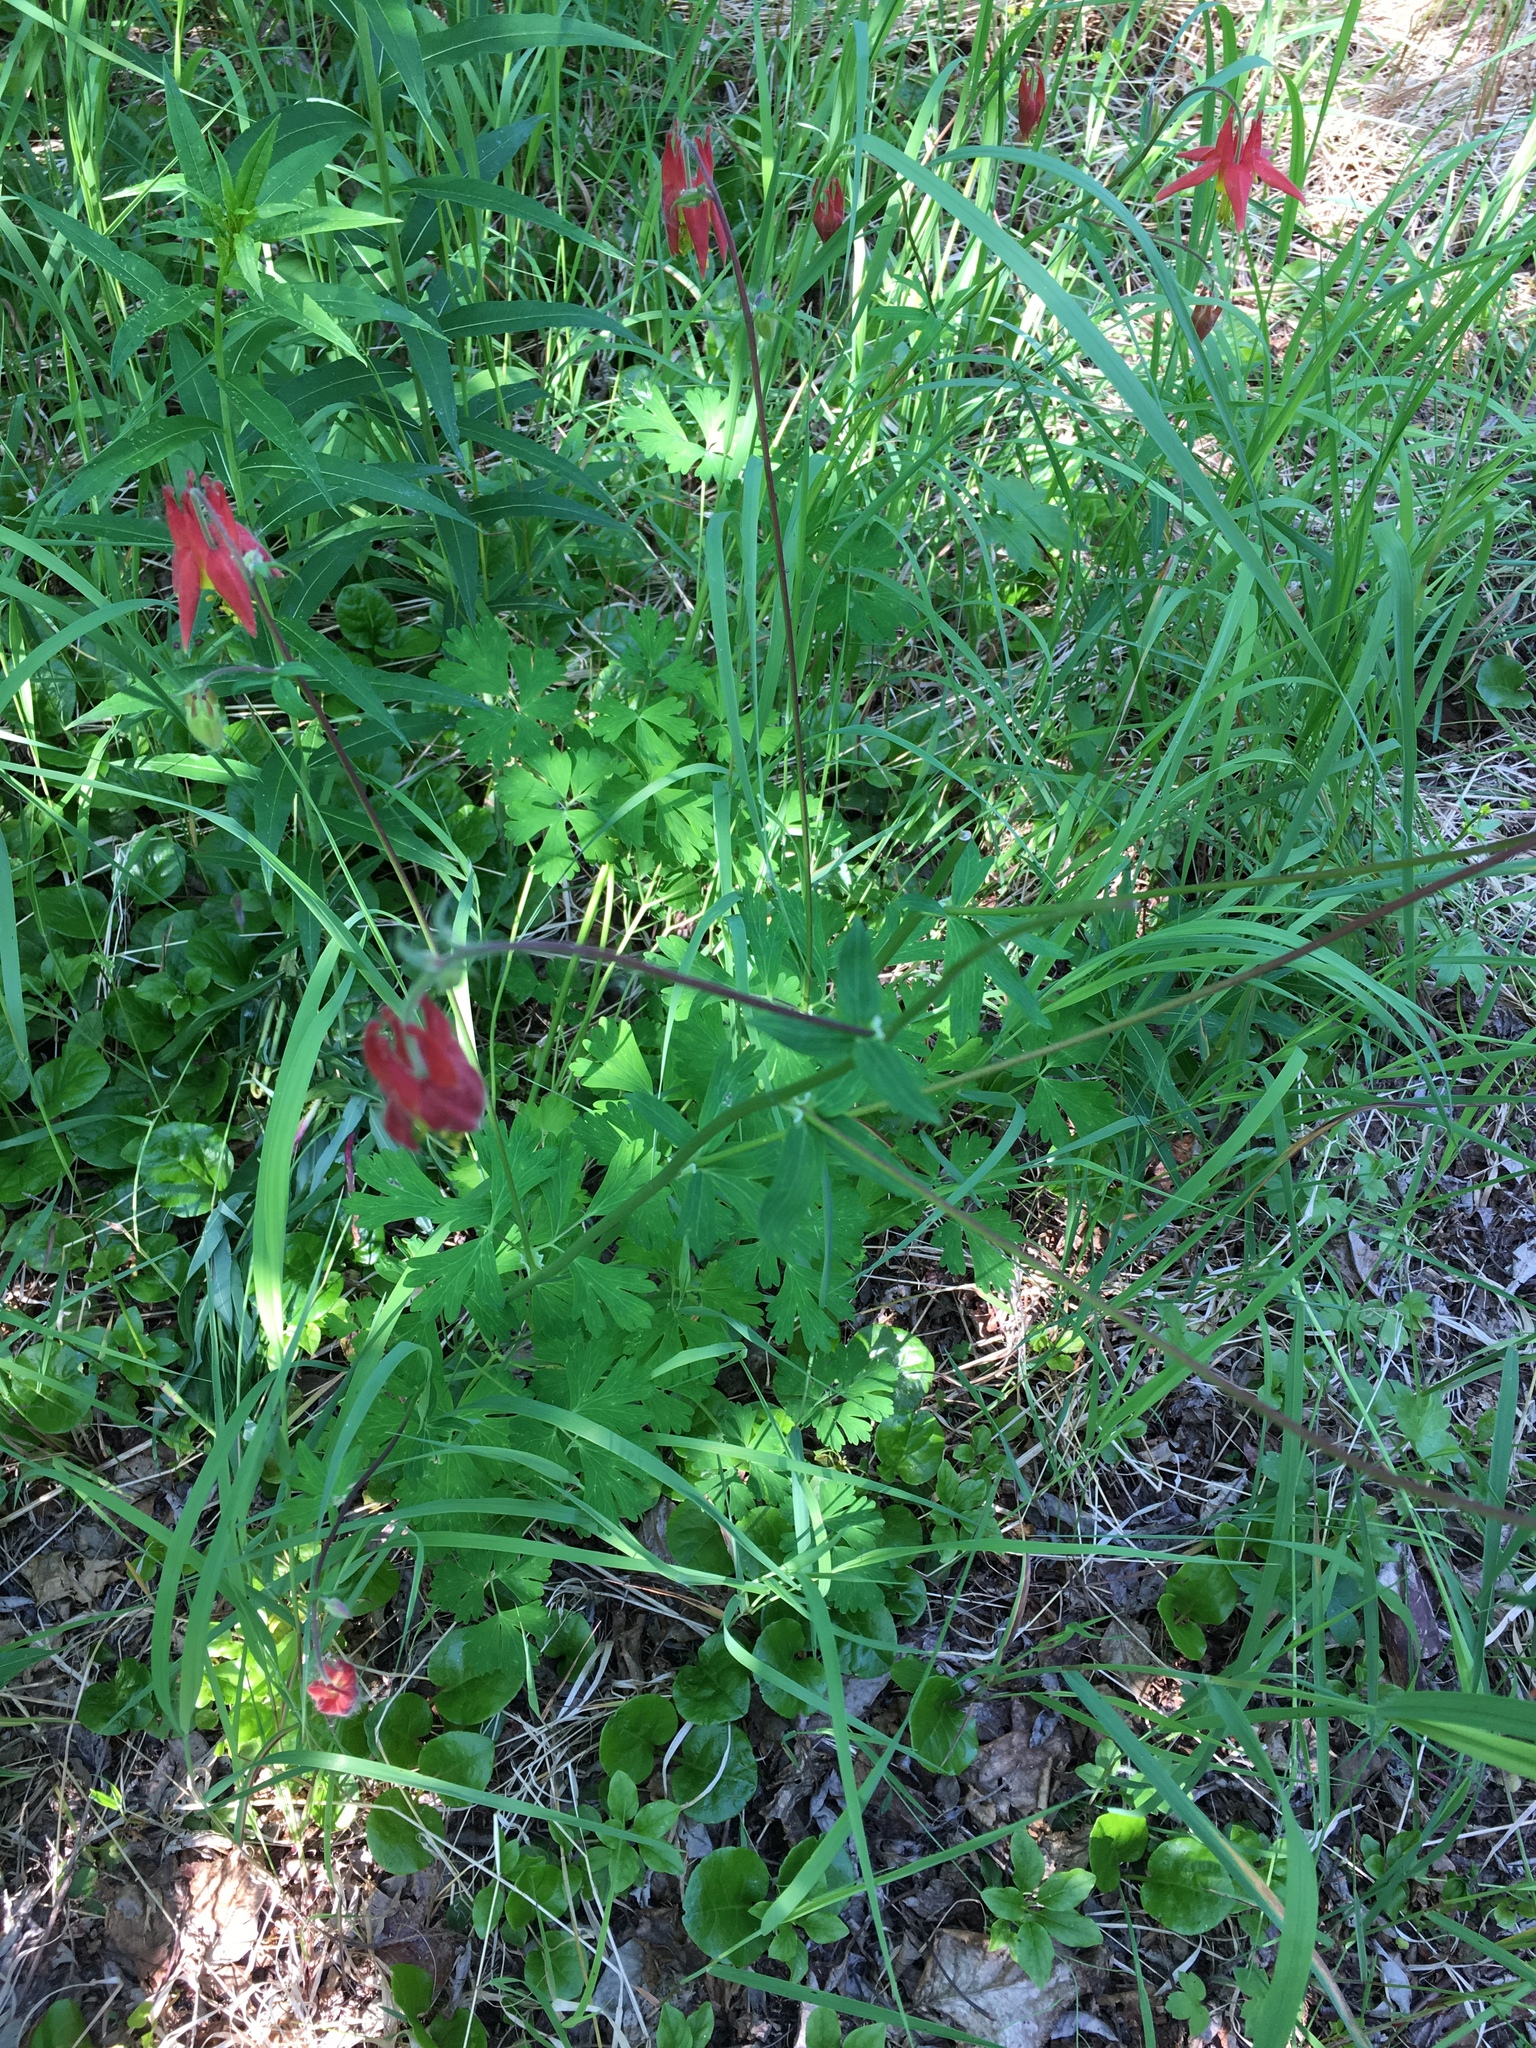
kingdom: Plantae
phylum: Tracheophyta
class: Magnoliopsida
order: Ranunculales
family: Ranunculaceae
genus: Aquilegia
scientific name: Aquilegia formosa
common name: Sitka columbine
